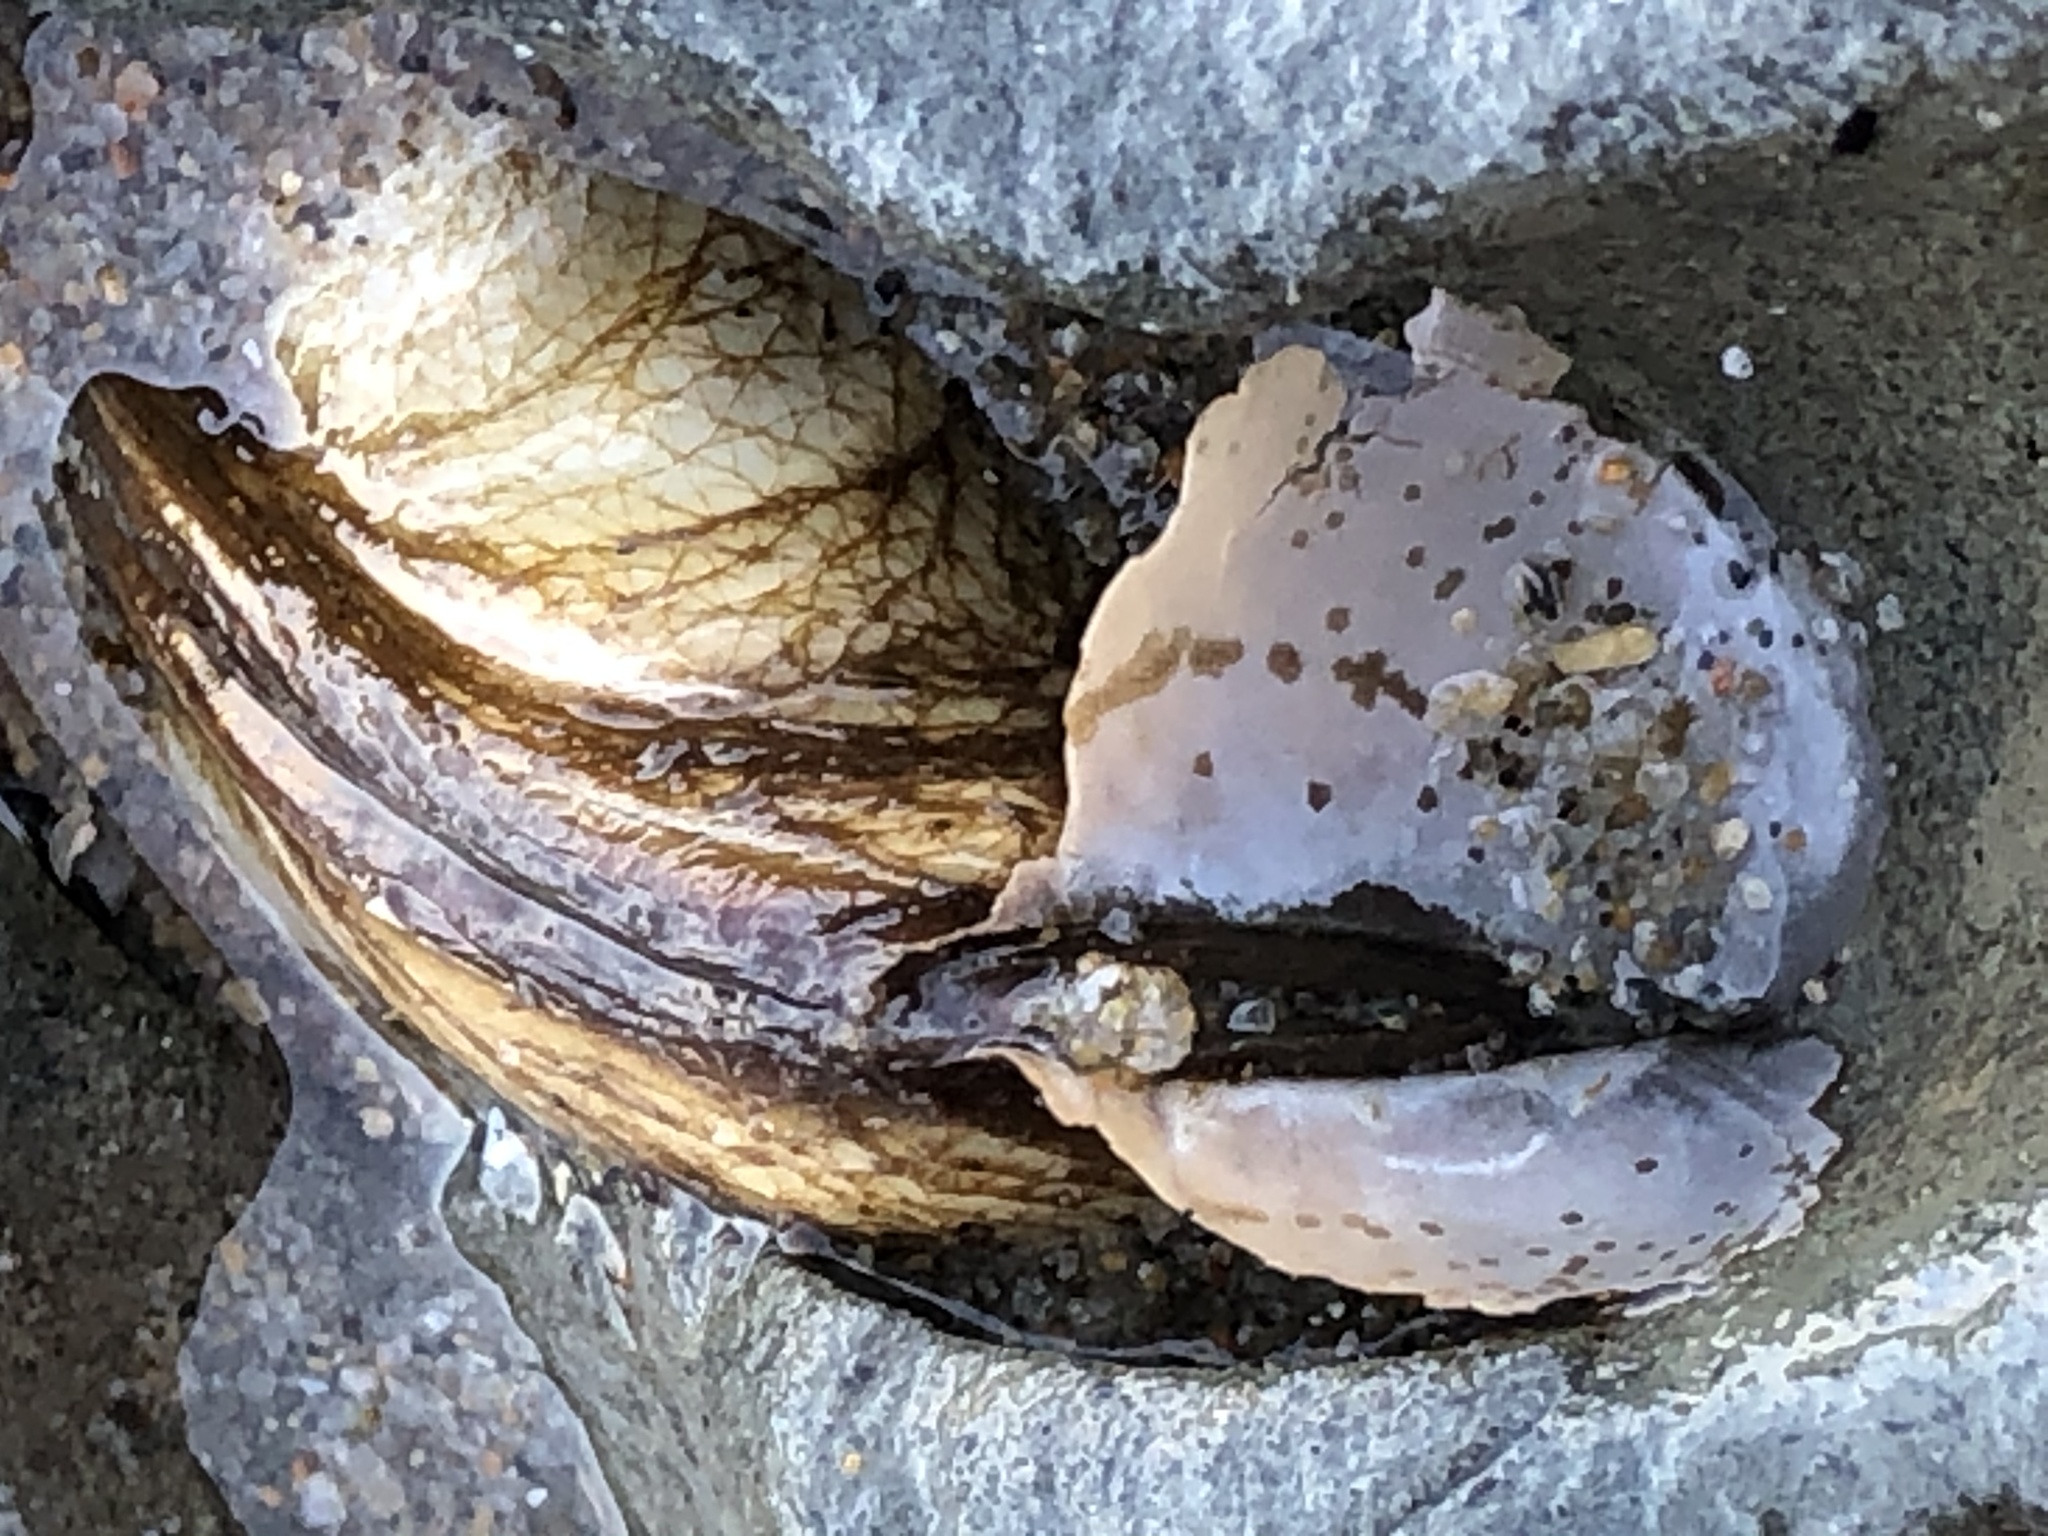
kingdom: Animalia
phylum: Mollusca
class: Bivalvia
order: Myida
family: Pholadidae
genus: Penitella
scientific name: Penitella penita
